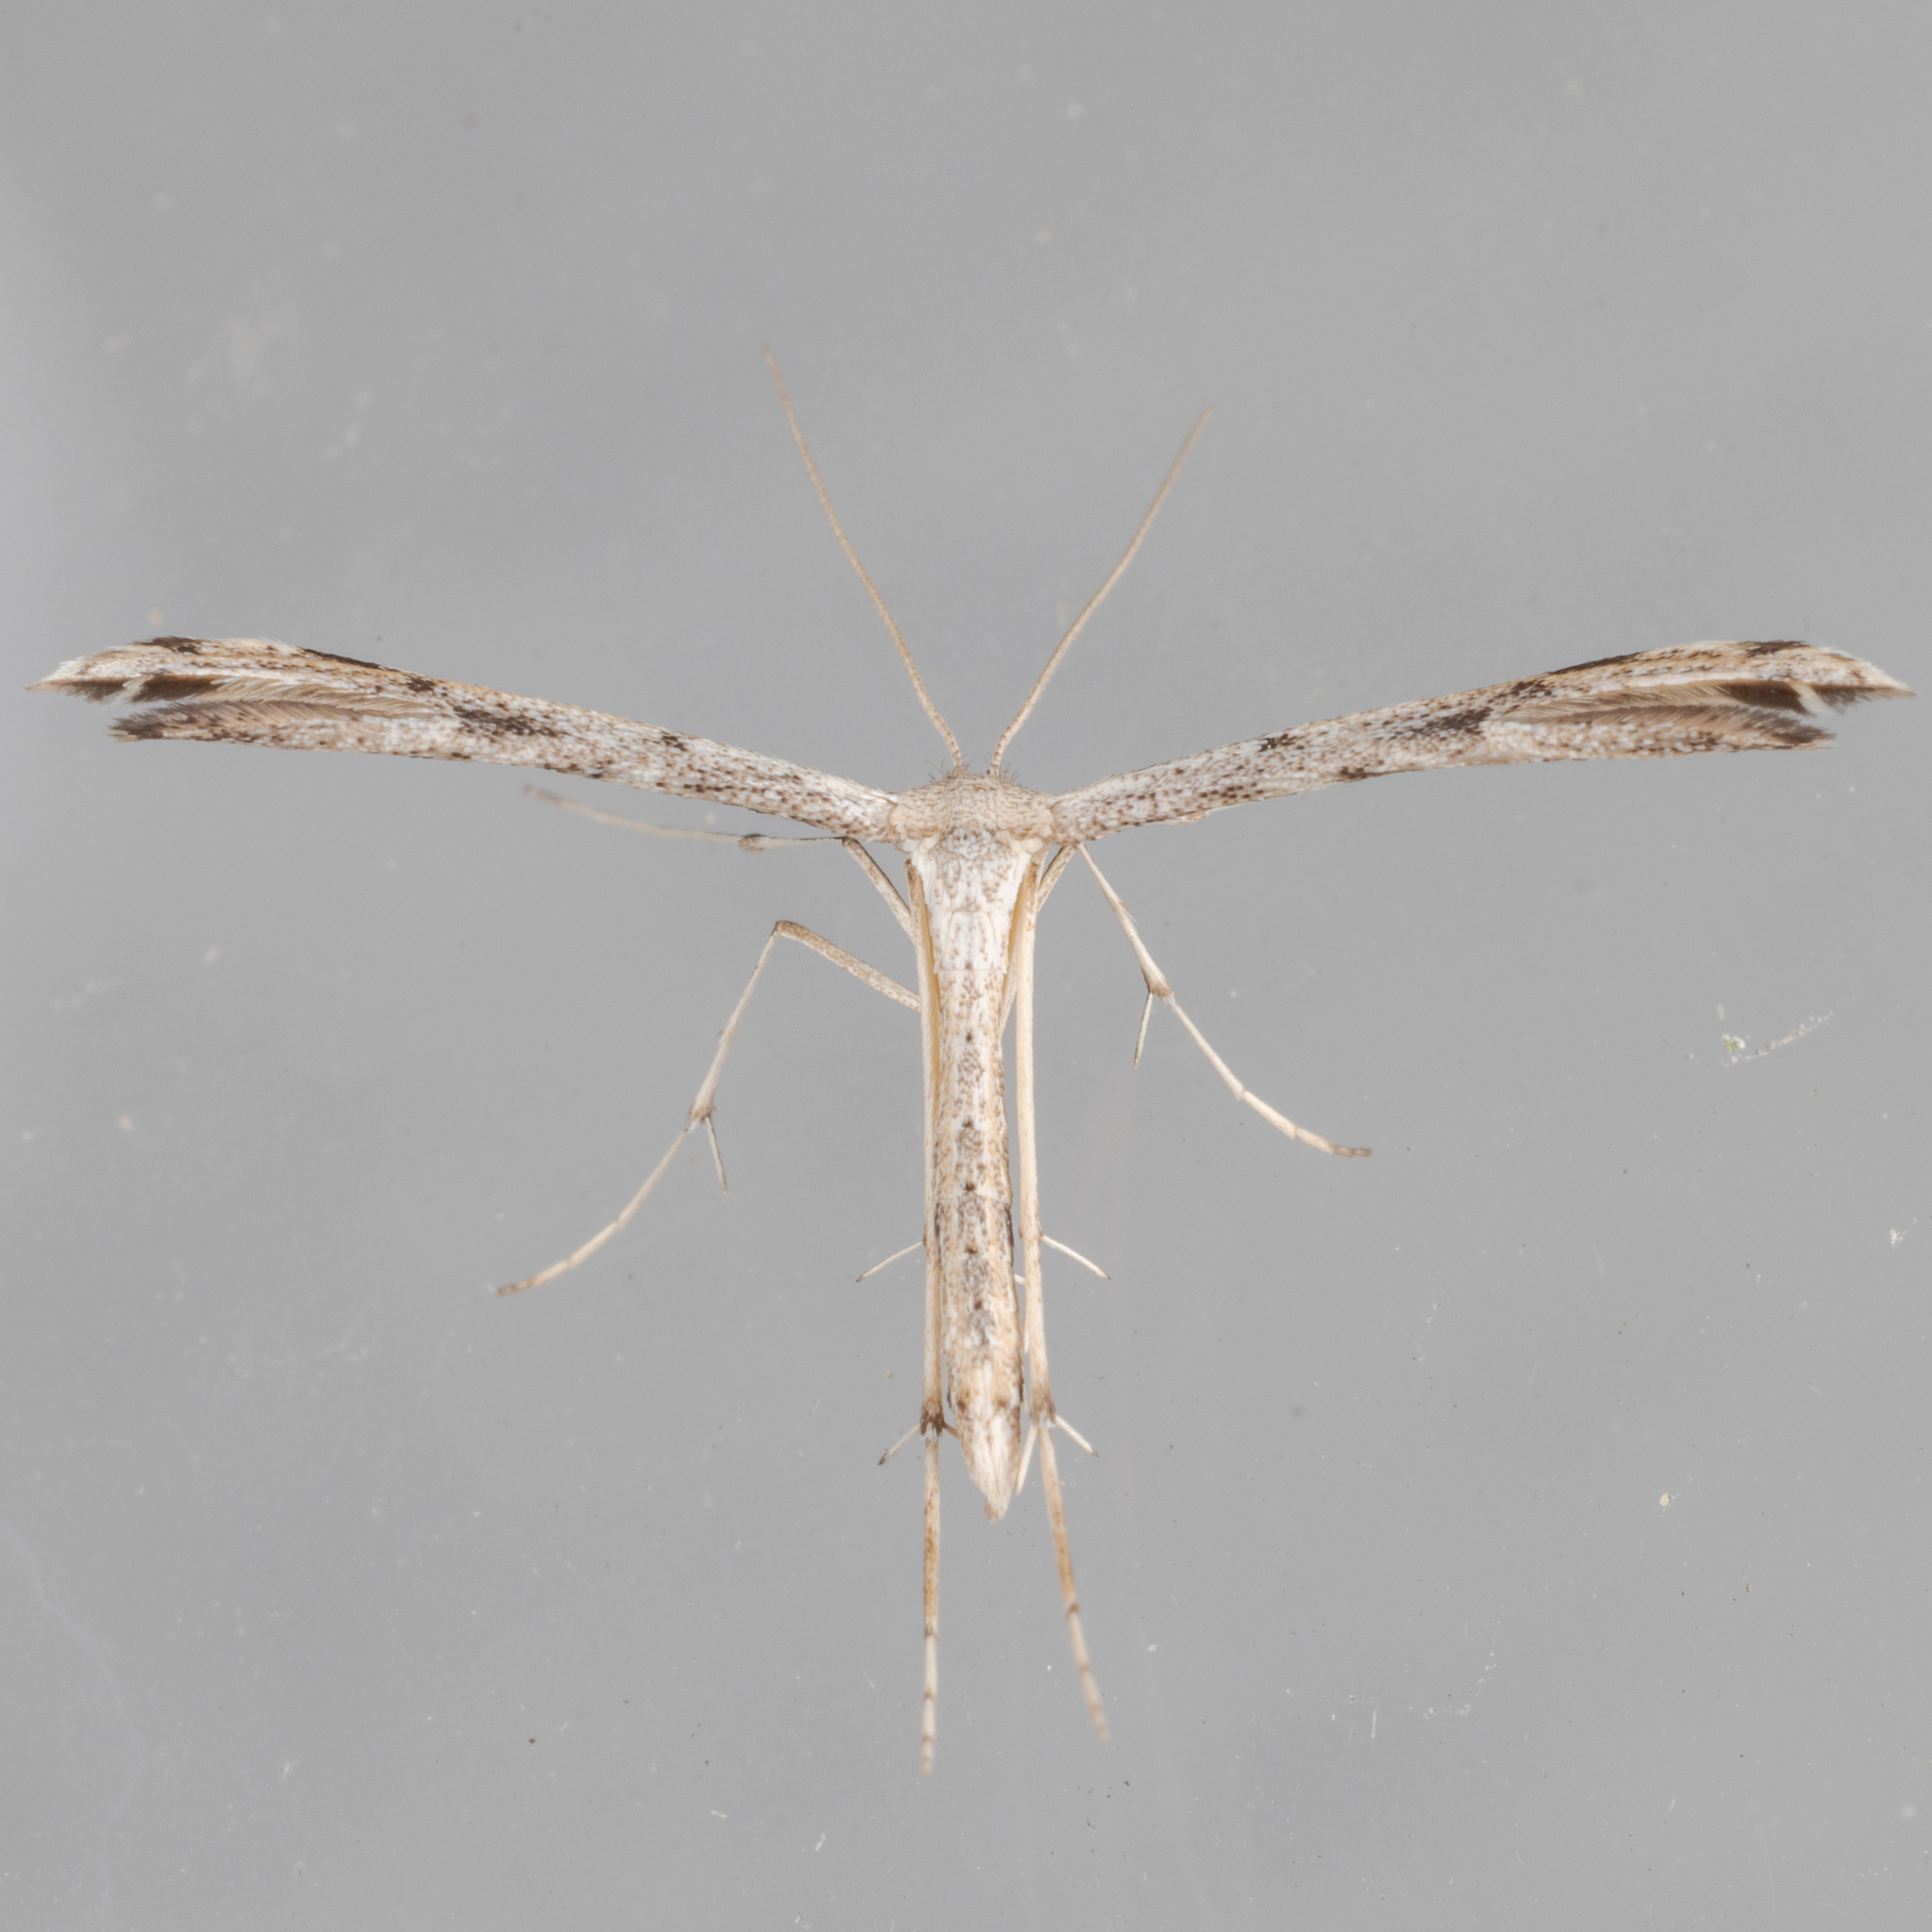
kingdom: Animalia
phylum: Arthropoda
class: Insecta
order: Lepidoptera
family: Pterophoridae
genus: Adaina
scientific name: Adaina ambrosiae
